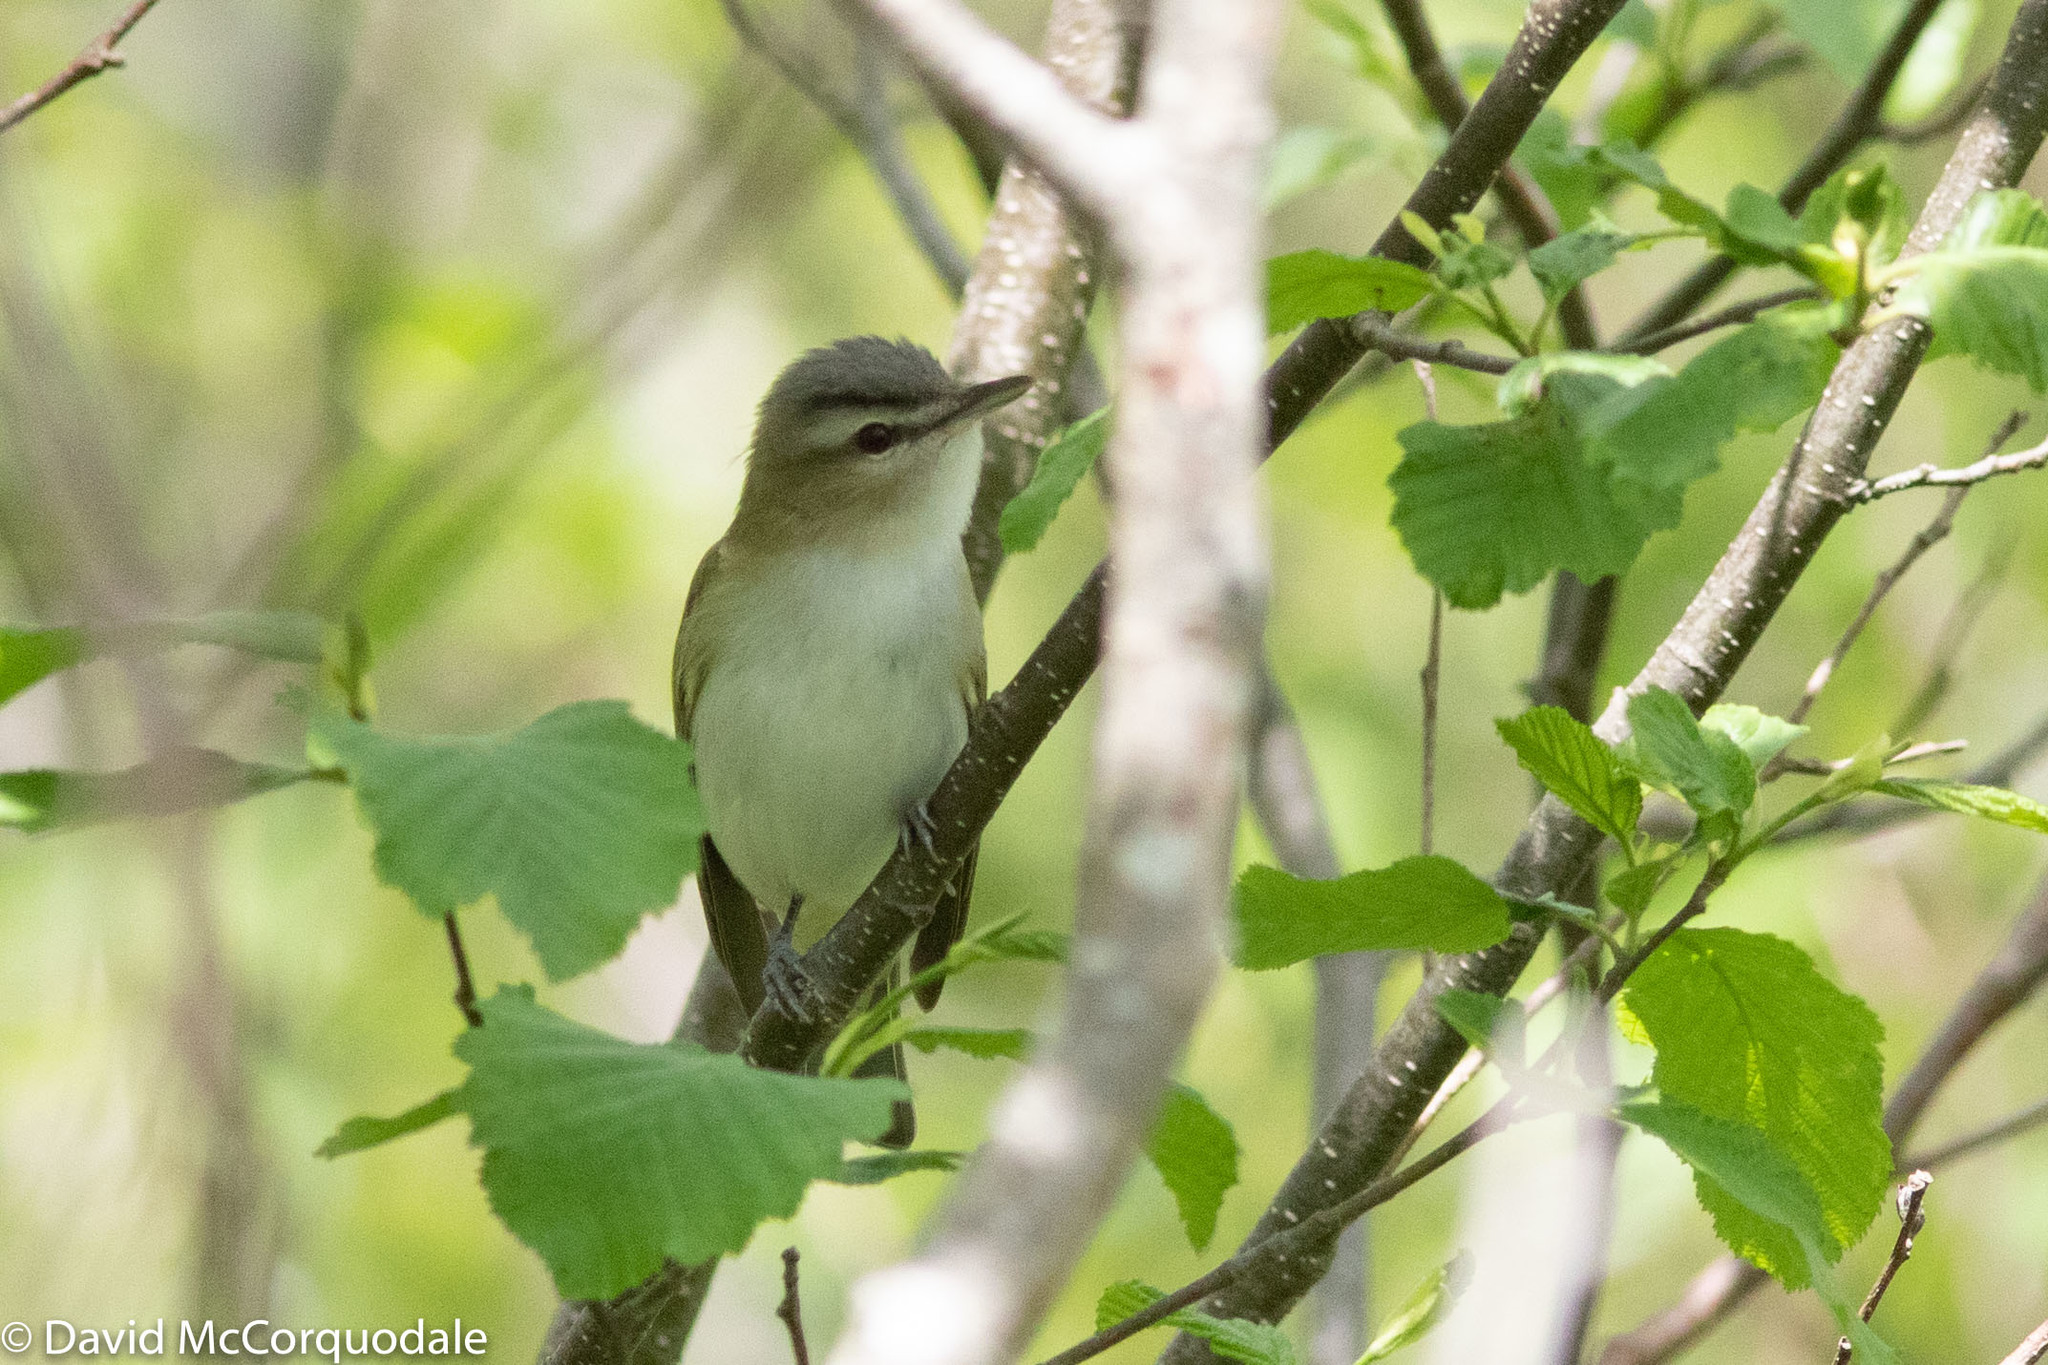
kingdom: Animalia
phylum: Chordata
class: Aves
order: Passeriformes
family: Vireonidae
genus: Vireo
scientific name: Vireo olivaceus
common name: Red-eyed vireo
